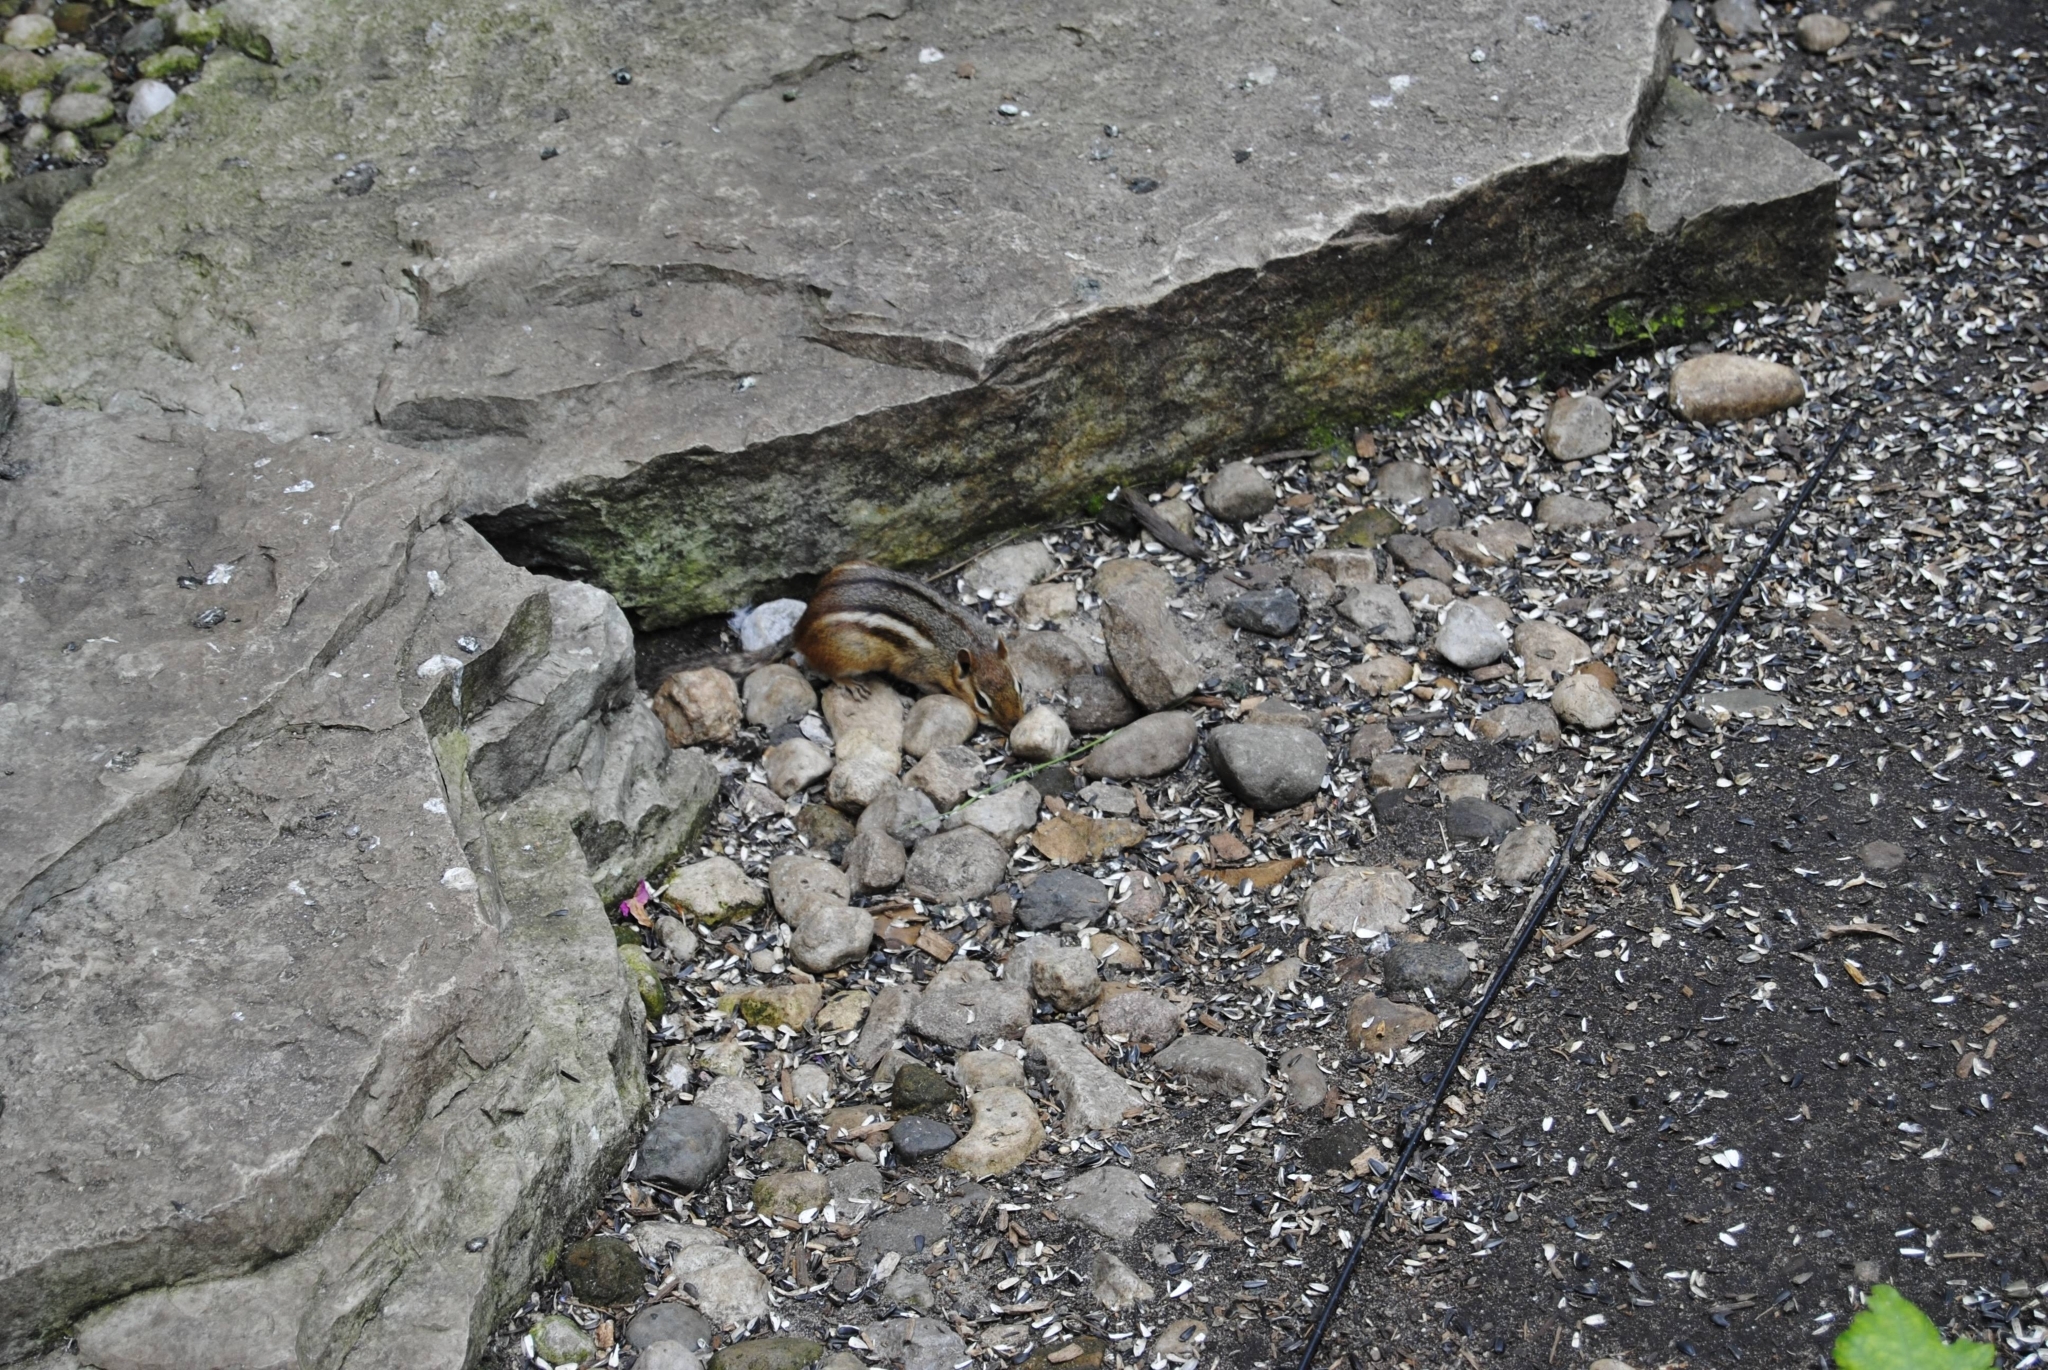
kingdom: Animalia
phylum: Chordata
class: Mammalia
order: Rodentia
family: Sciuridae
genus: Tamias
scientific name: Tamias striatus
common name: Eastern chipmunk
